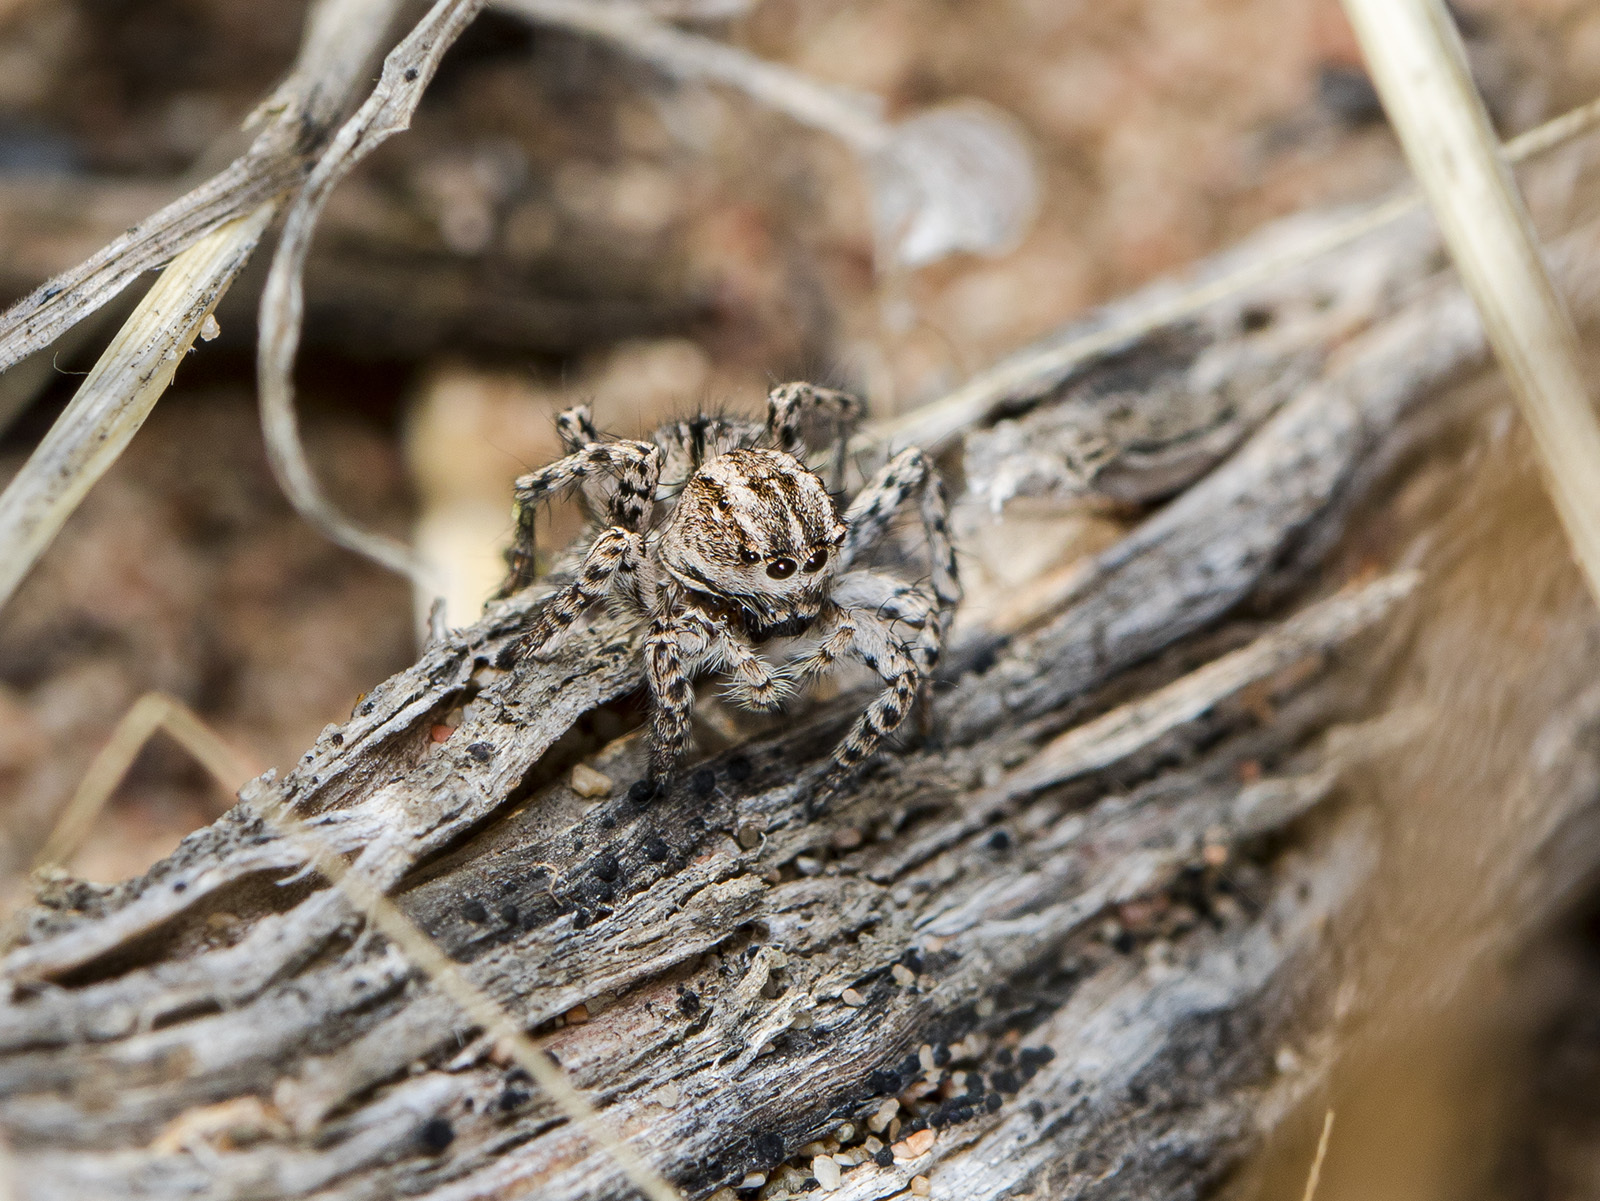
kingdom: Animalia
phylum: Arthropoda
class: Arachnida
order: Araneae
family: Salticidae
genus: Aelurillus
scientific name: Aelurillus m-nigrum
